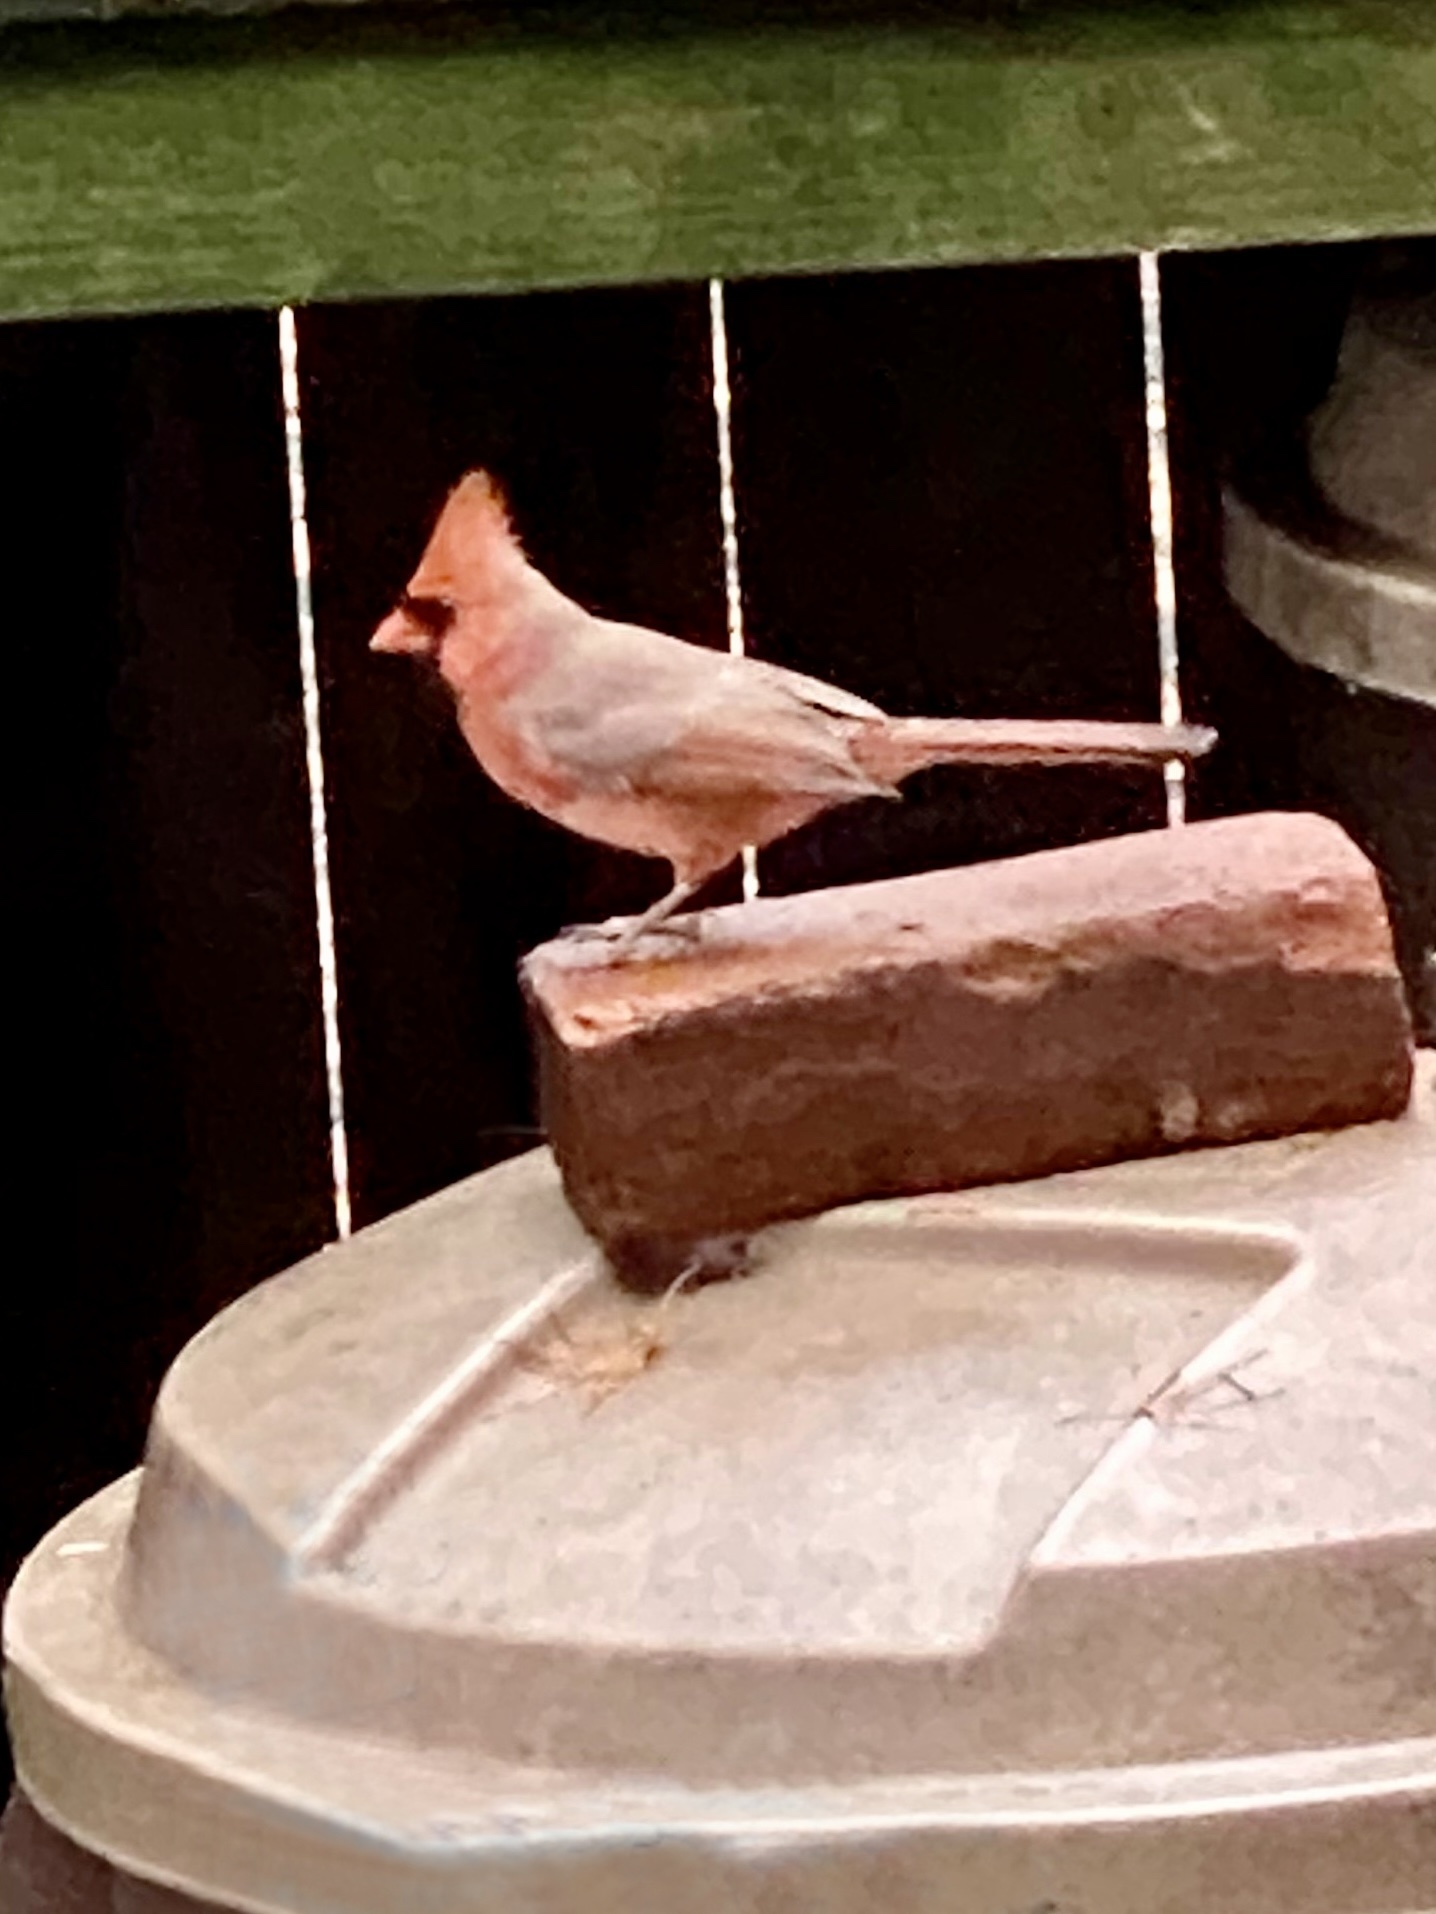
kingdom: Animalia
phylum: Chordata
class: Aves
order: Passeriformes
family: Cardinalidae
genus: Cardinalis
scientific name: Cardinalis cardinalis
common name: Northern cardinal
